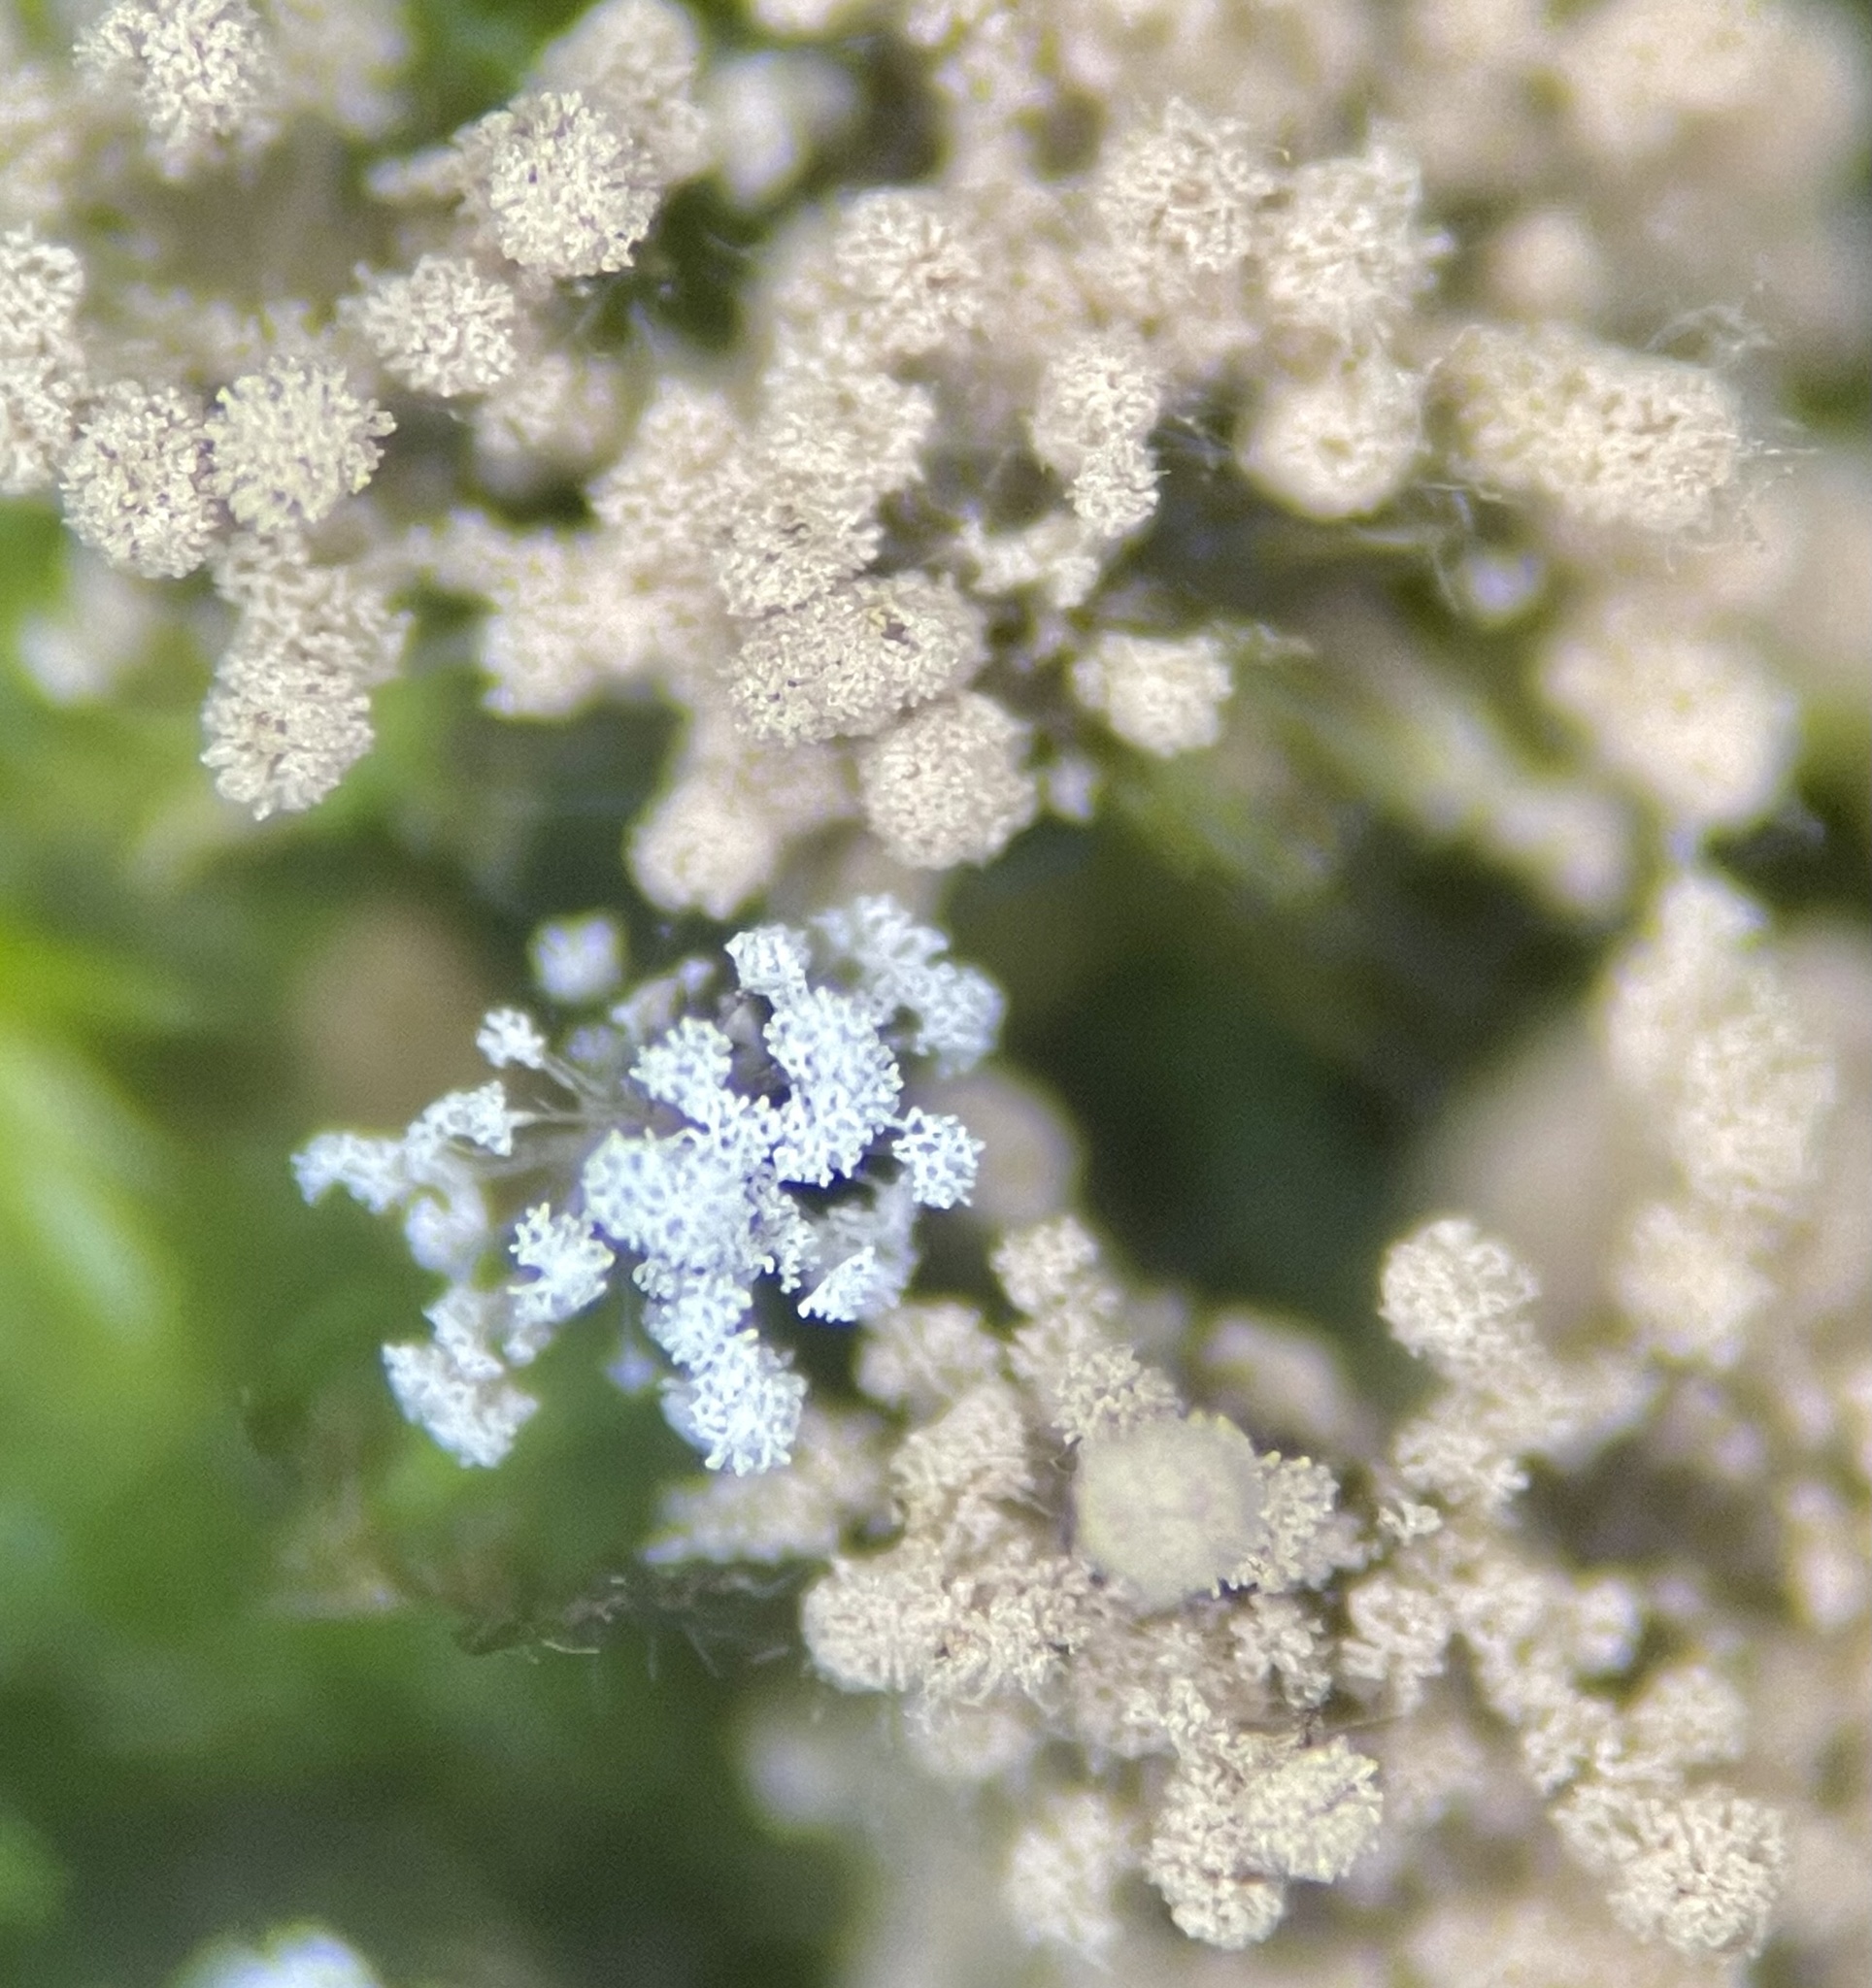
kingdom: Fungi
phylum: Ascomycota
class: Pezizomycetes
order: Pezizales
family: Pezizaceae
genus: Chromelosporiopsis
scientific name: Chromelosporiopsis carnea
